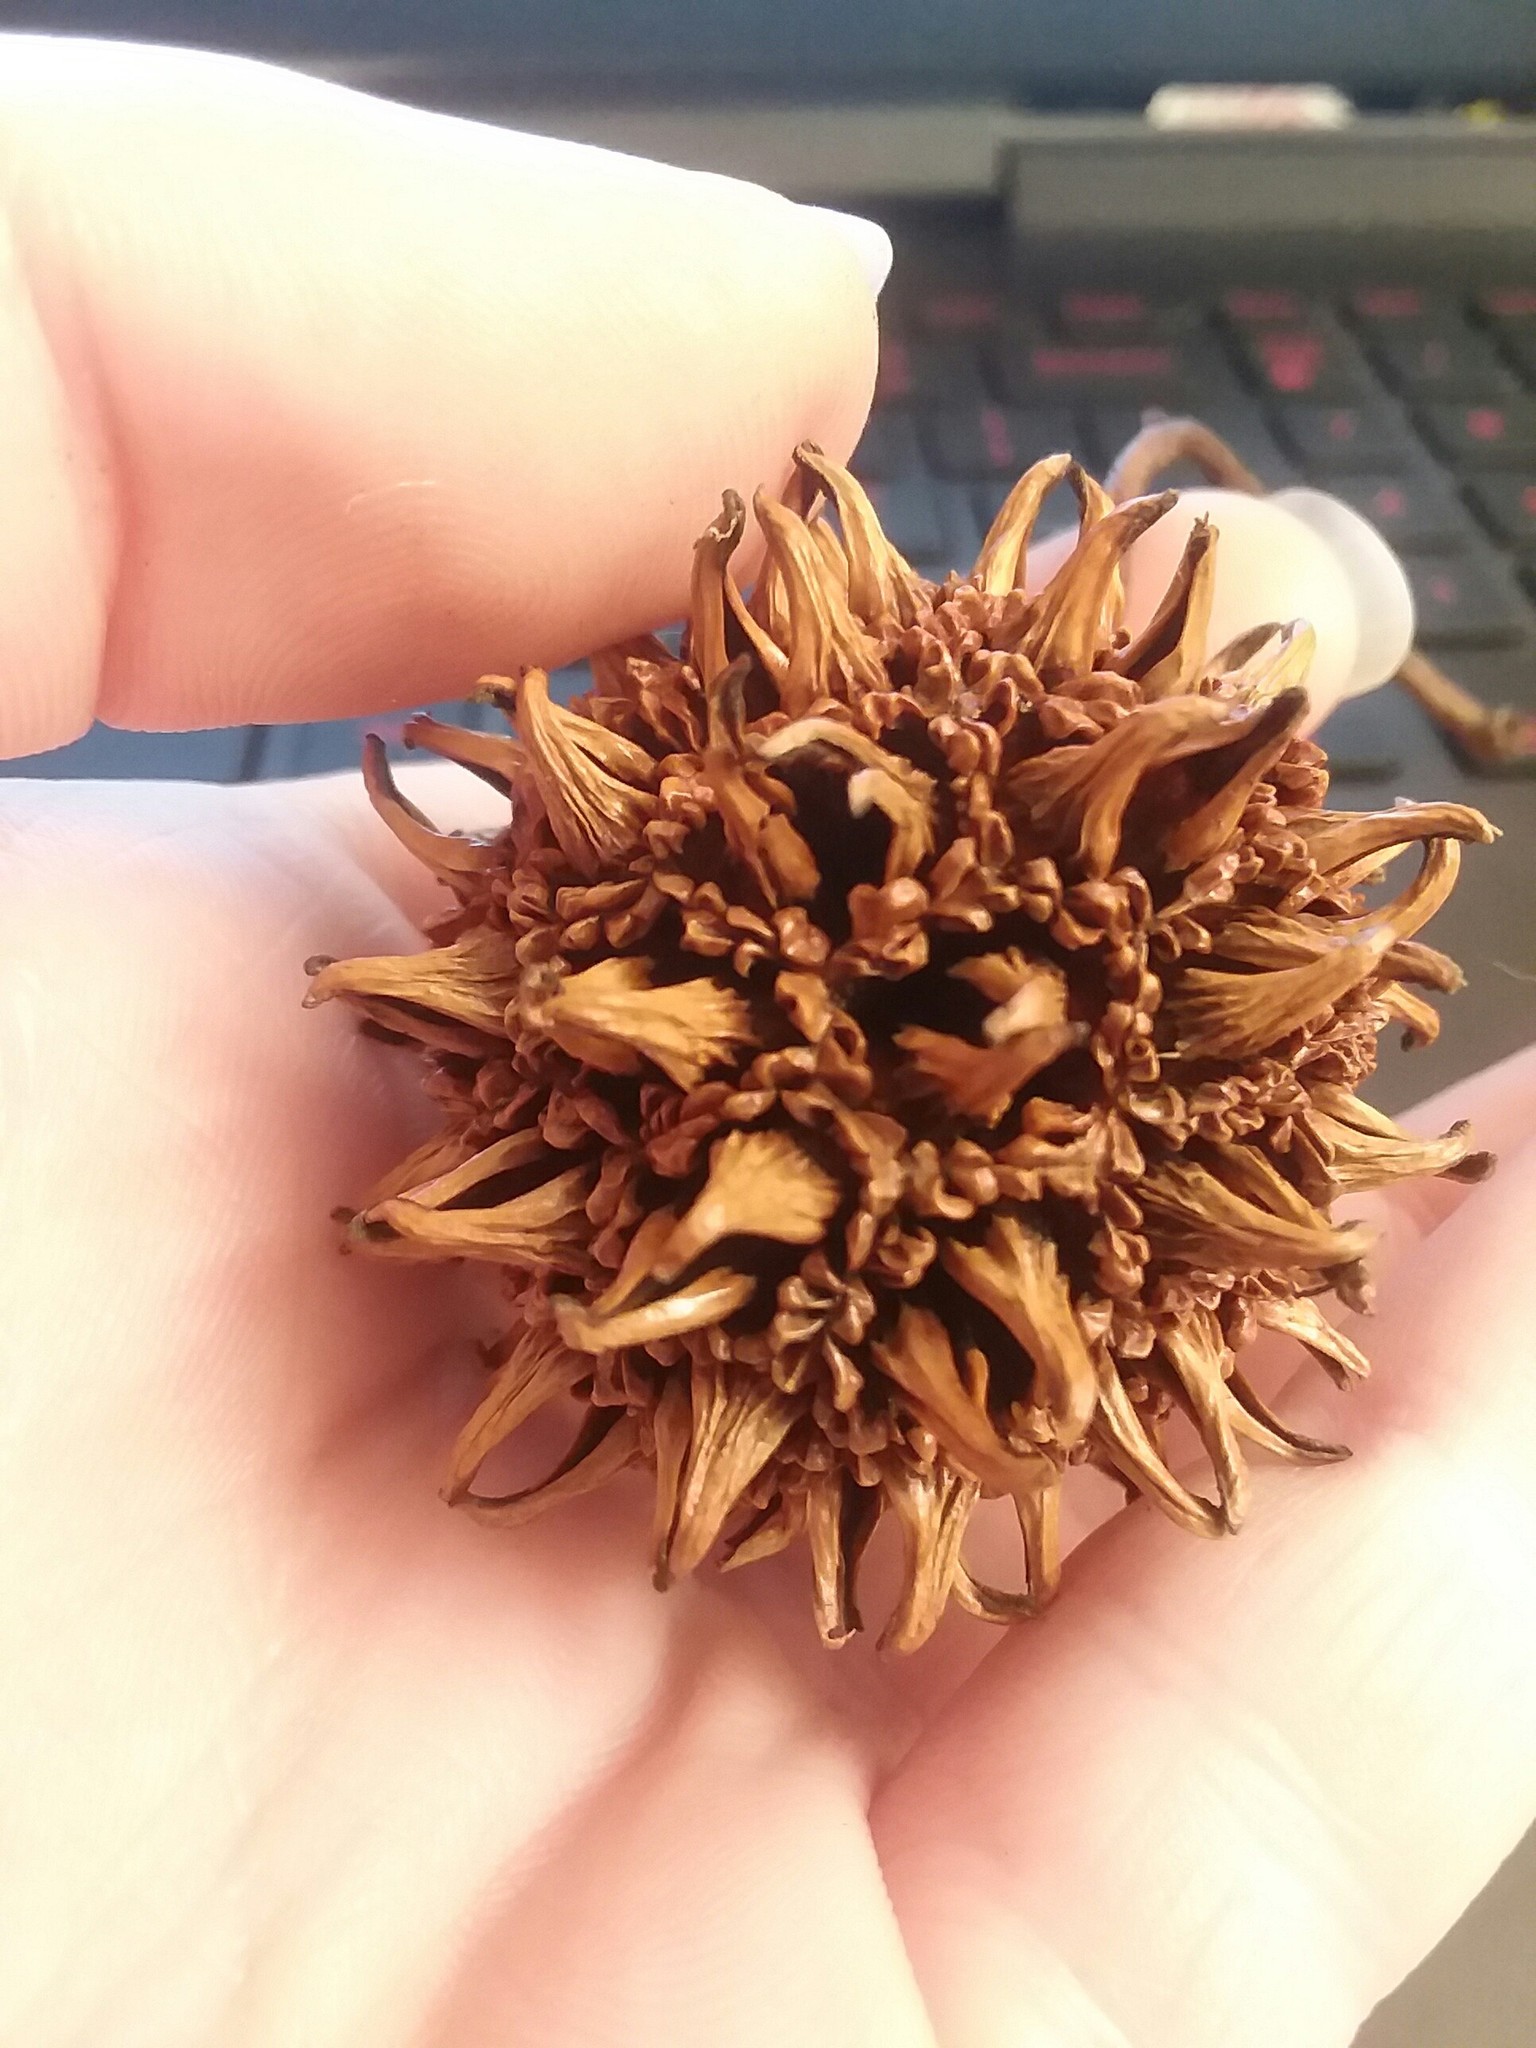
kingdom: Plantae
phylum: Tracheophyta
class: Magnoliopsida
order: Saxifragales
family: Altingiaceae
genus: Liquidambar
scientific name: Liquidambar styraciflua
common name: Sweet gum
